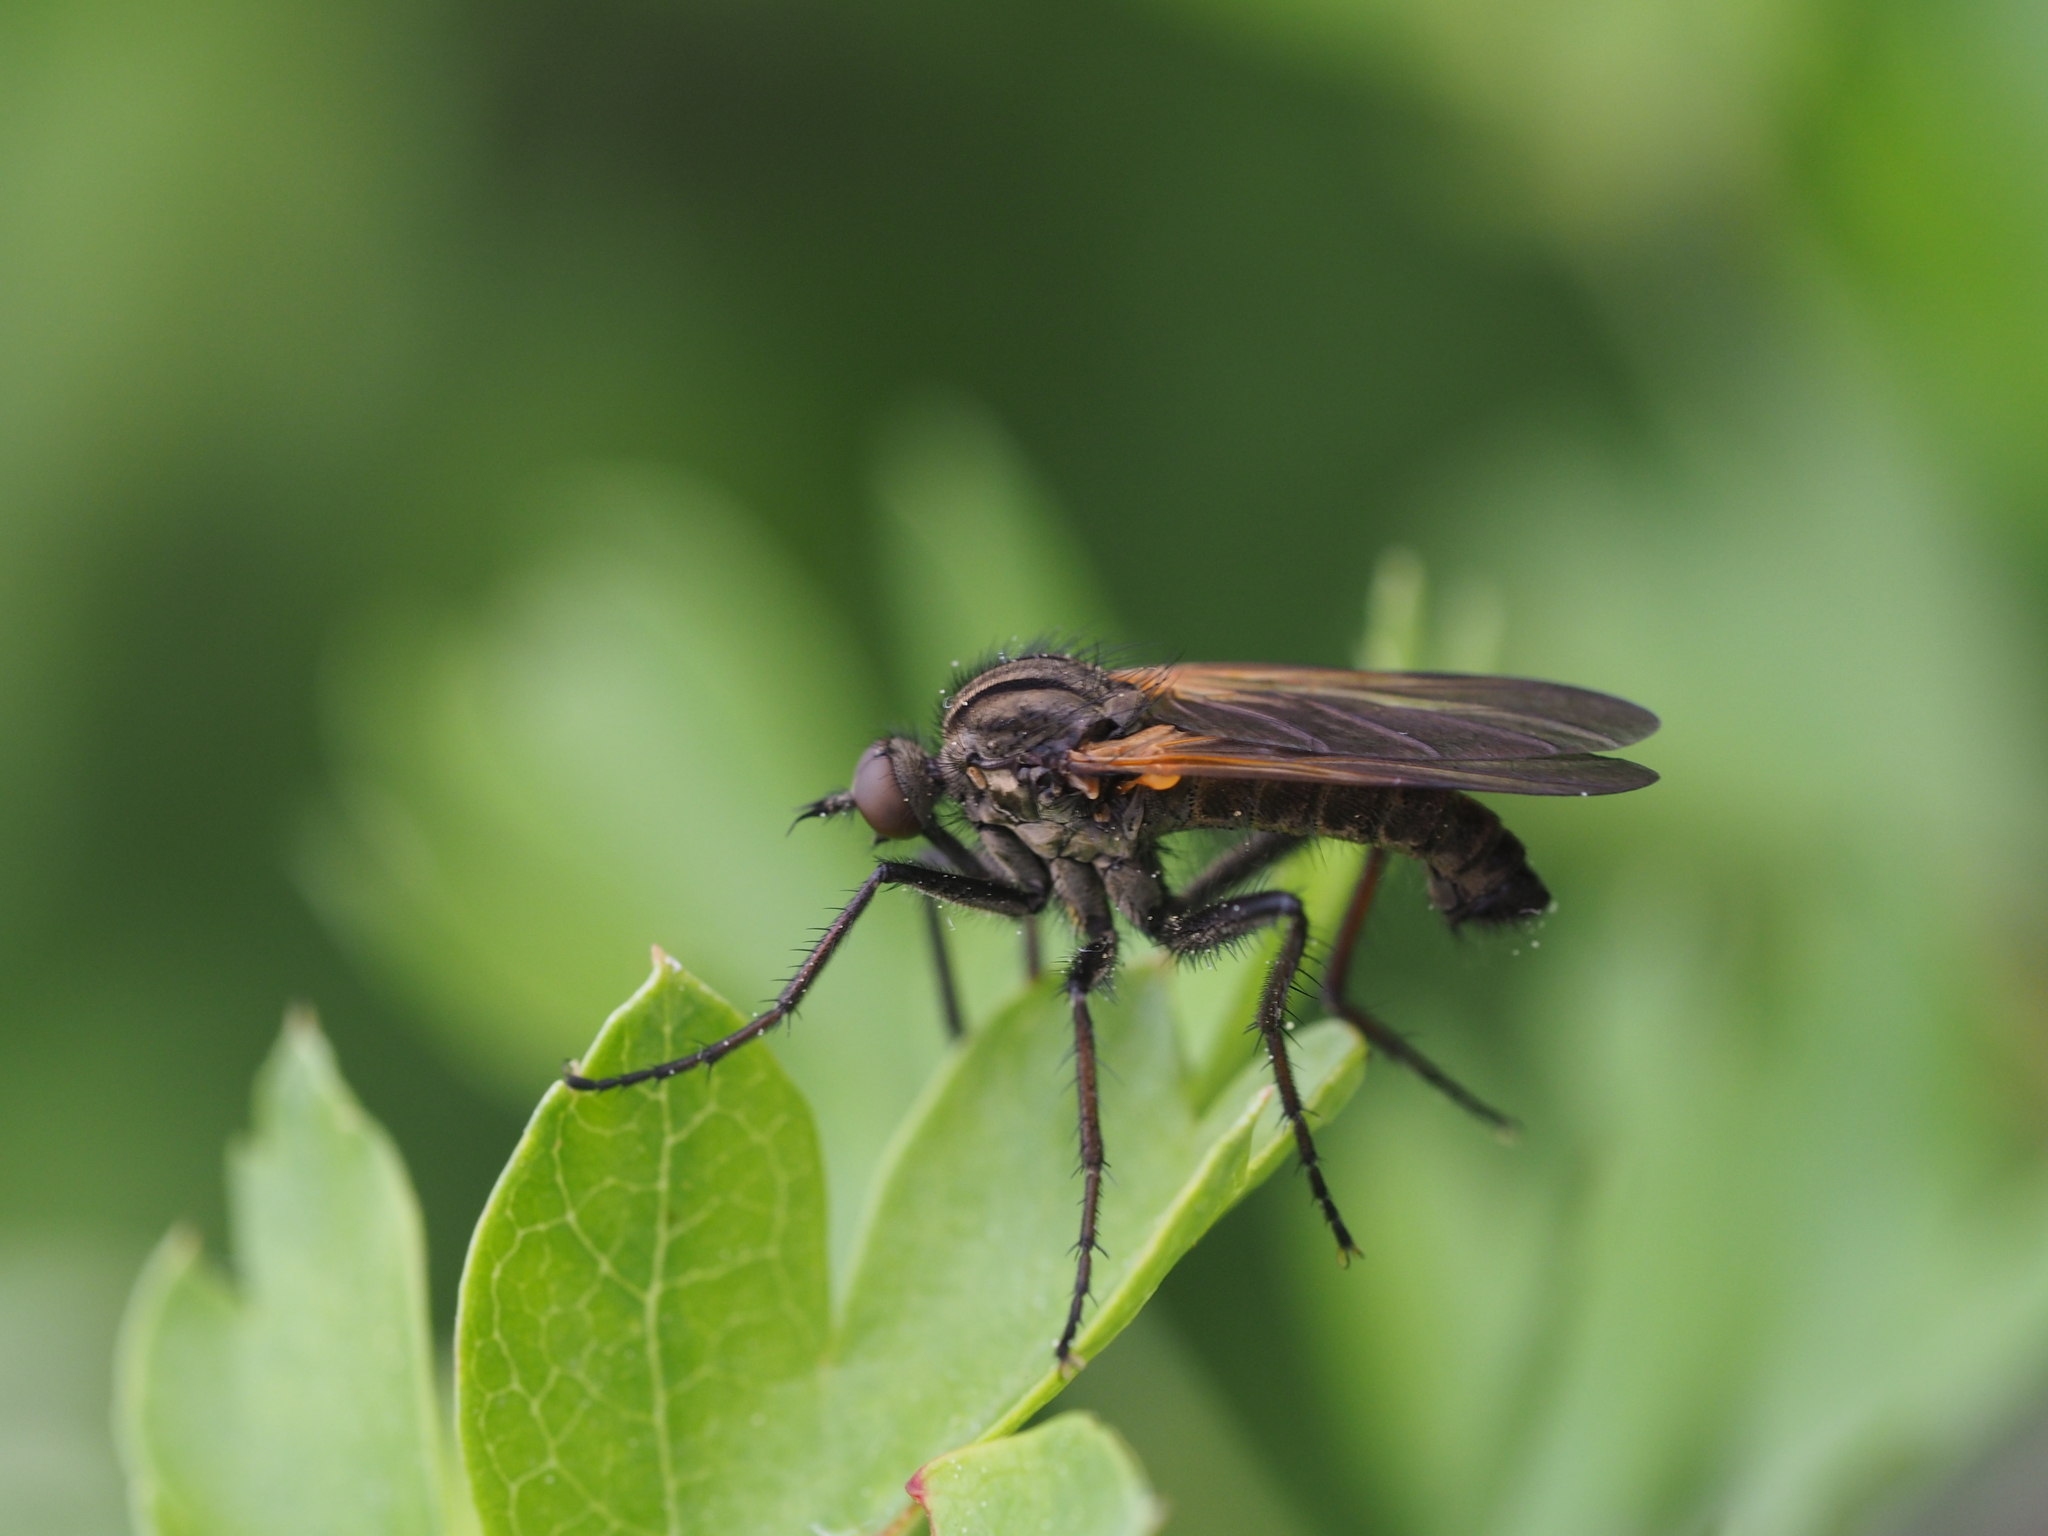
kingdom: Animalia
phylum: Arthropoda
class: Insecta
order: Diptera
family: Empididae
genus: Empis
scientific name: Empis tessellata
